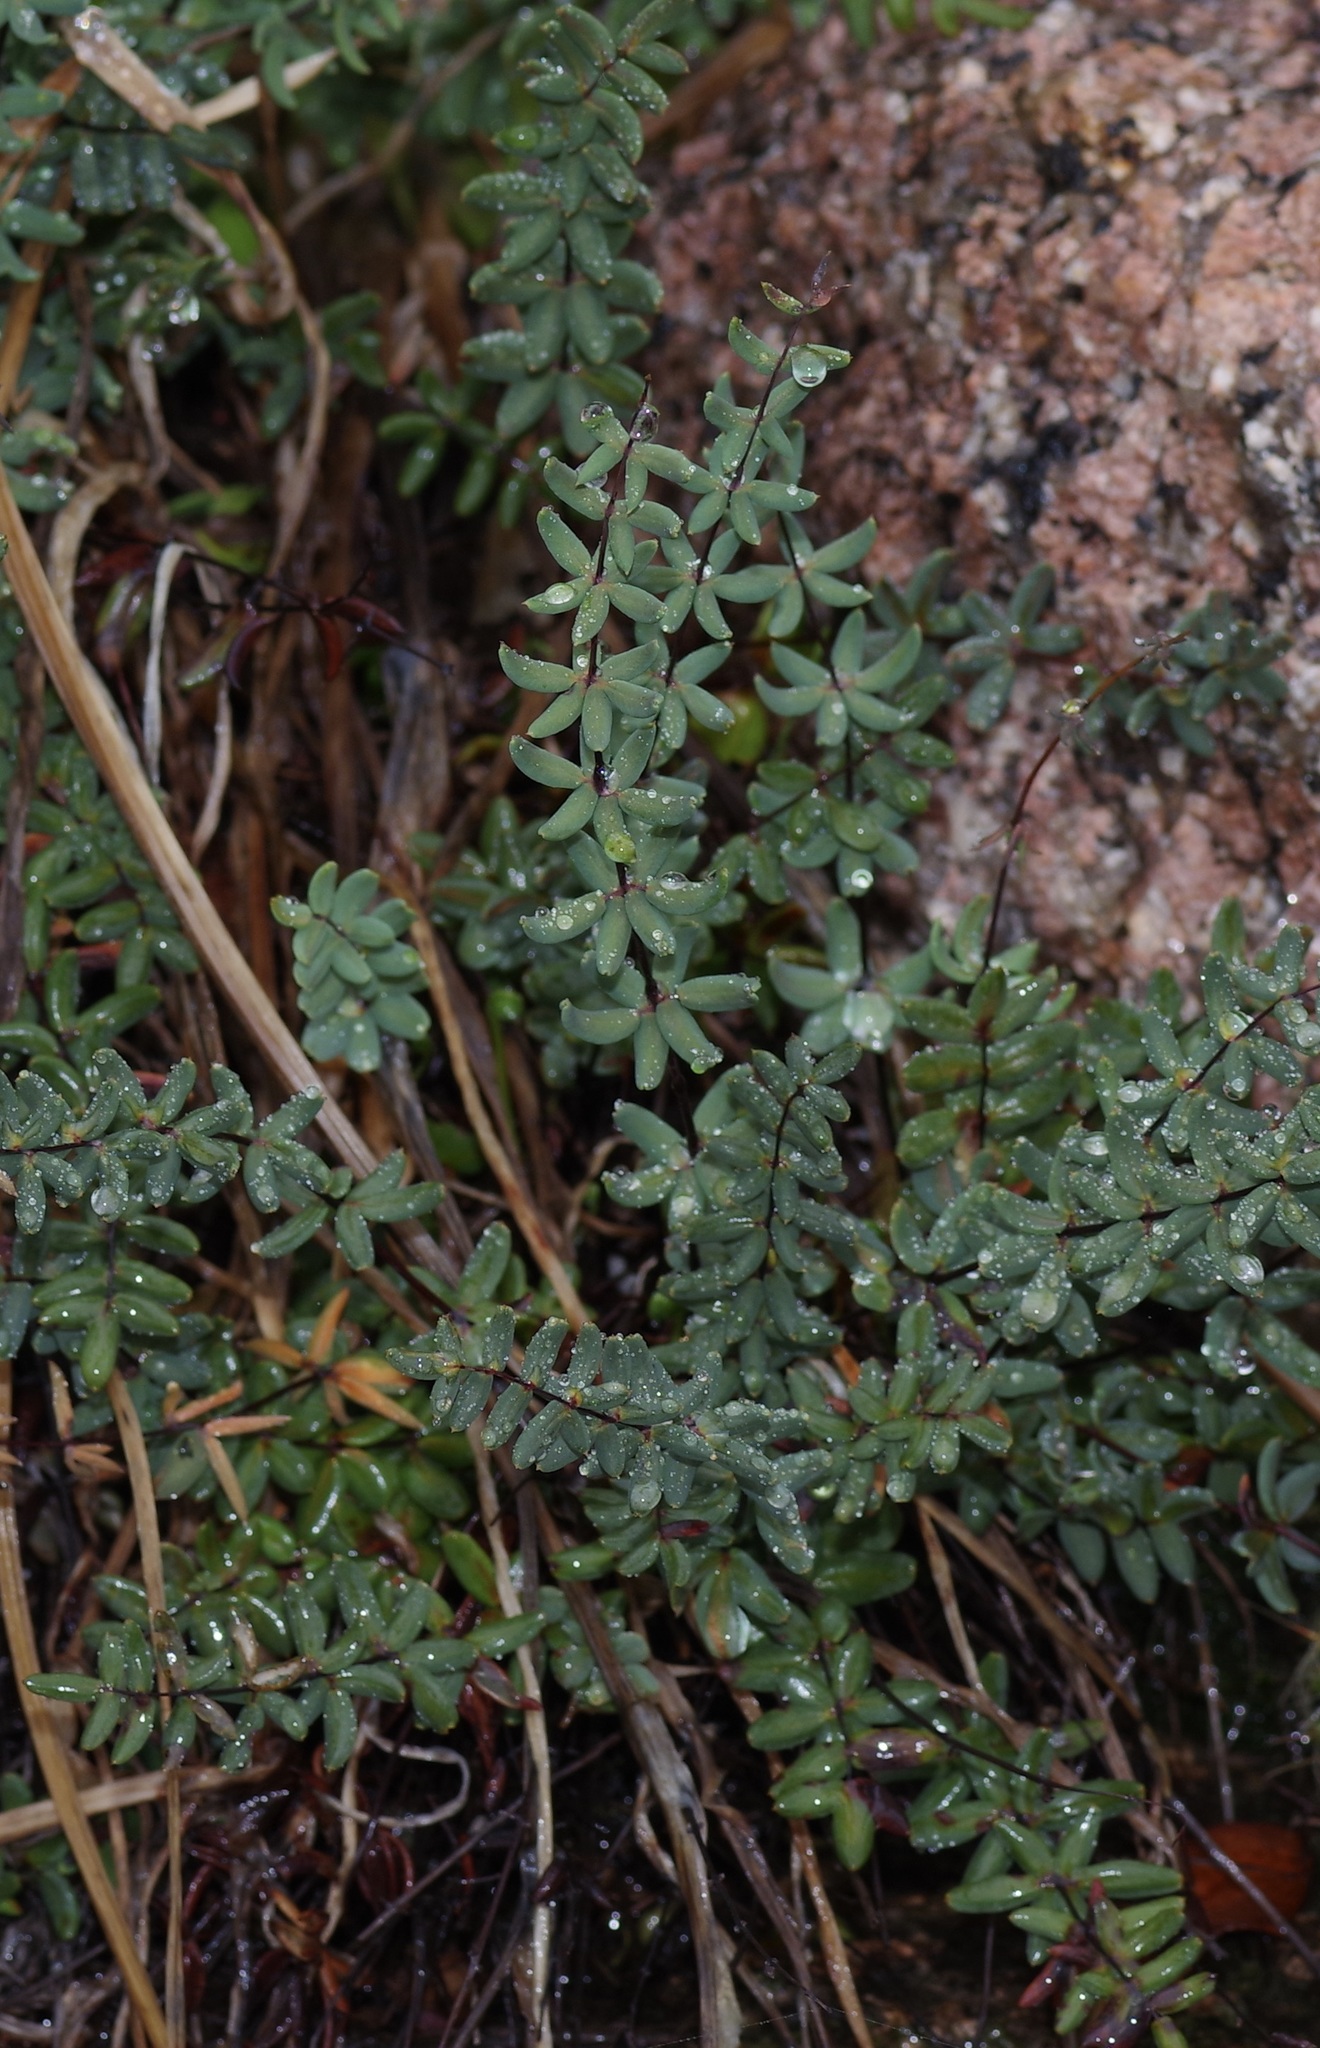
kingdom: Plantae
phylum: Tracheophyta
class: Polypodiopsida
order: Polypodiales
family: Pteridaceae
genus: Pellaea
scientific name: Pellaea wrightiana
